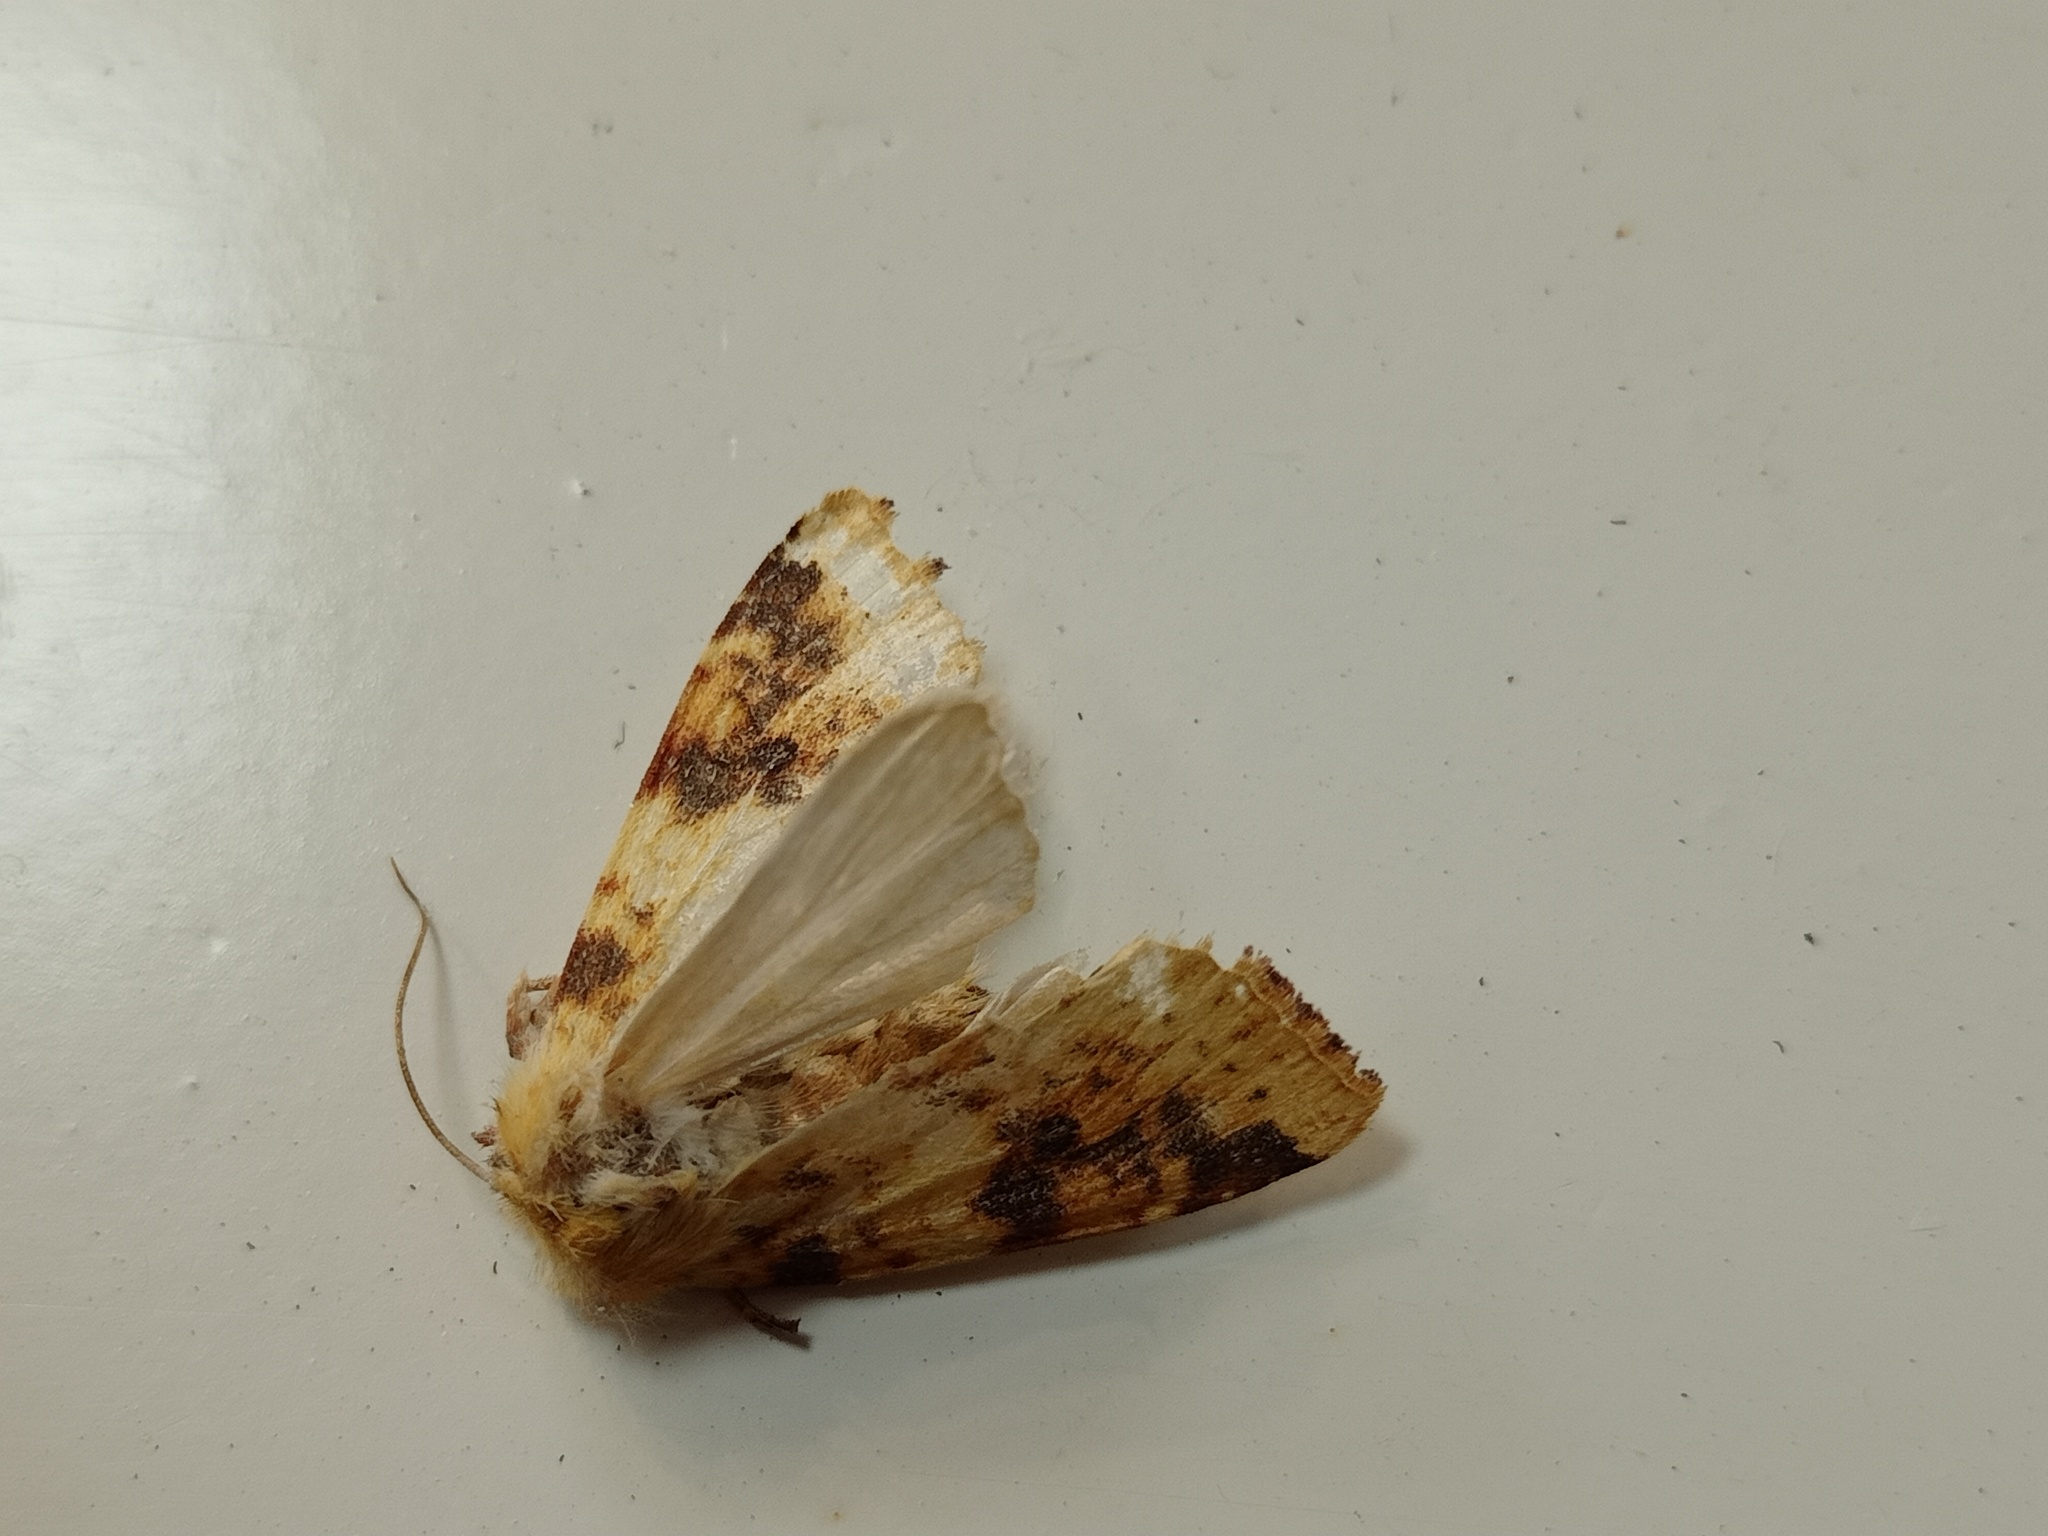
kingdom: Animalia
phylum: Arthropoda
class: Insecta
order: Lepidoptera
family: Noctuidae
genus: Xanthia
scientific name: Xanthia icteritia
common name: The sallow
